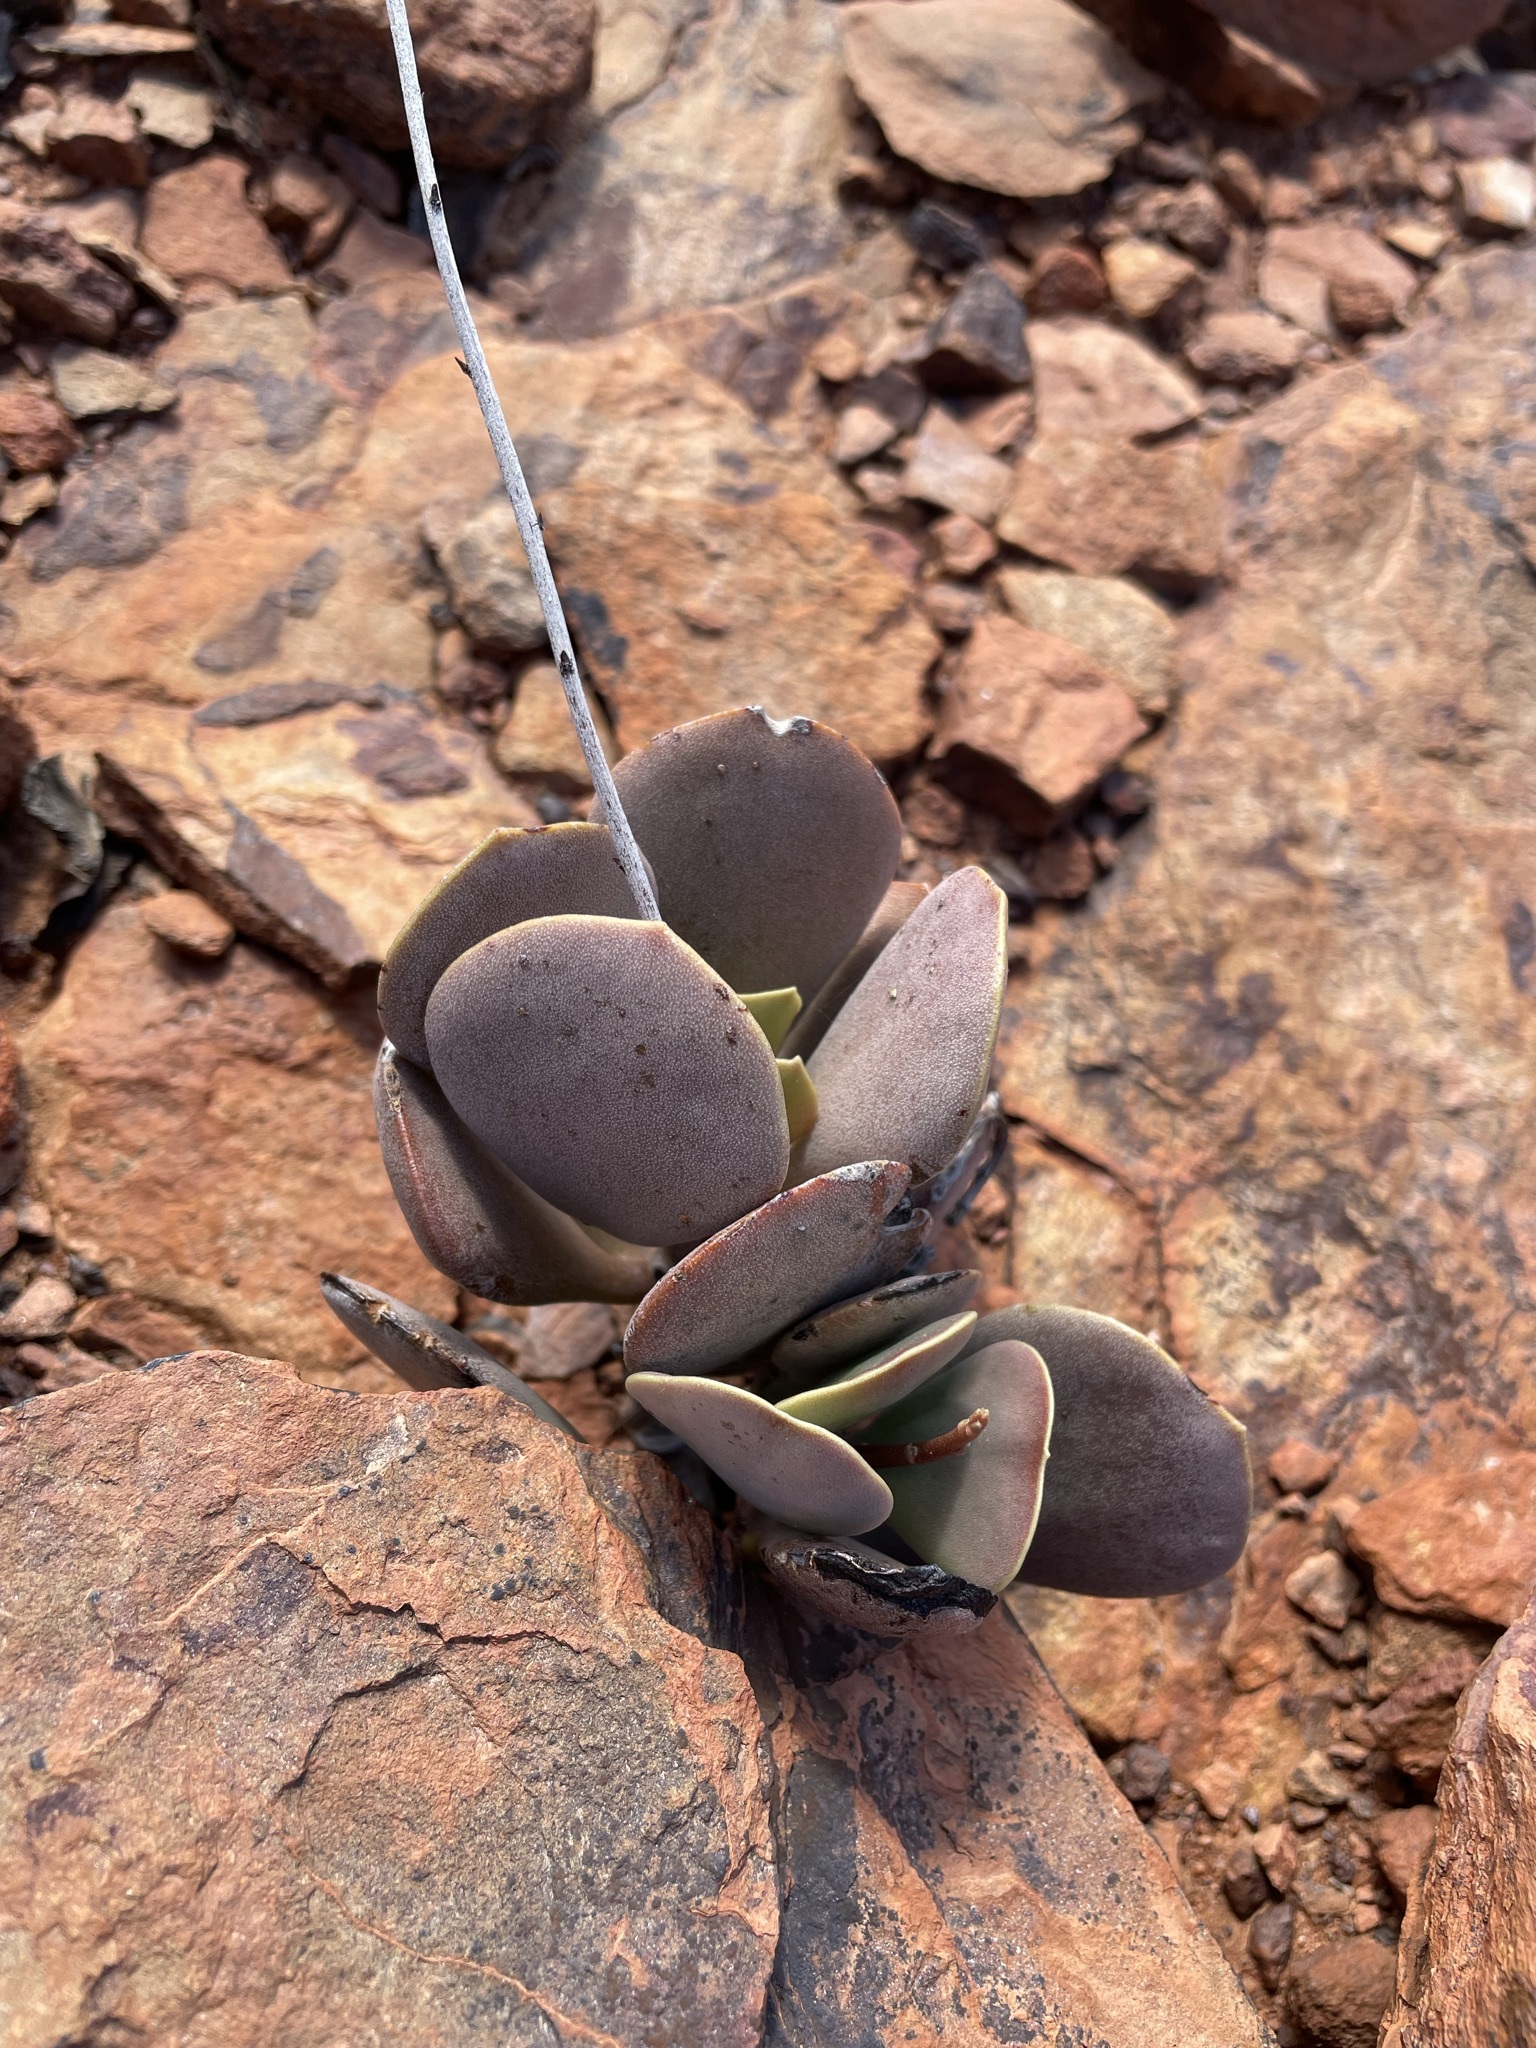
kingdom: Plantae
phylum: Tracheophyta
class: Magnoliopsida
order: Saxifragales
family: Crassulaceae
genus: Adromischus
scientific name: Adromischus alstonii
